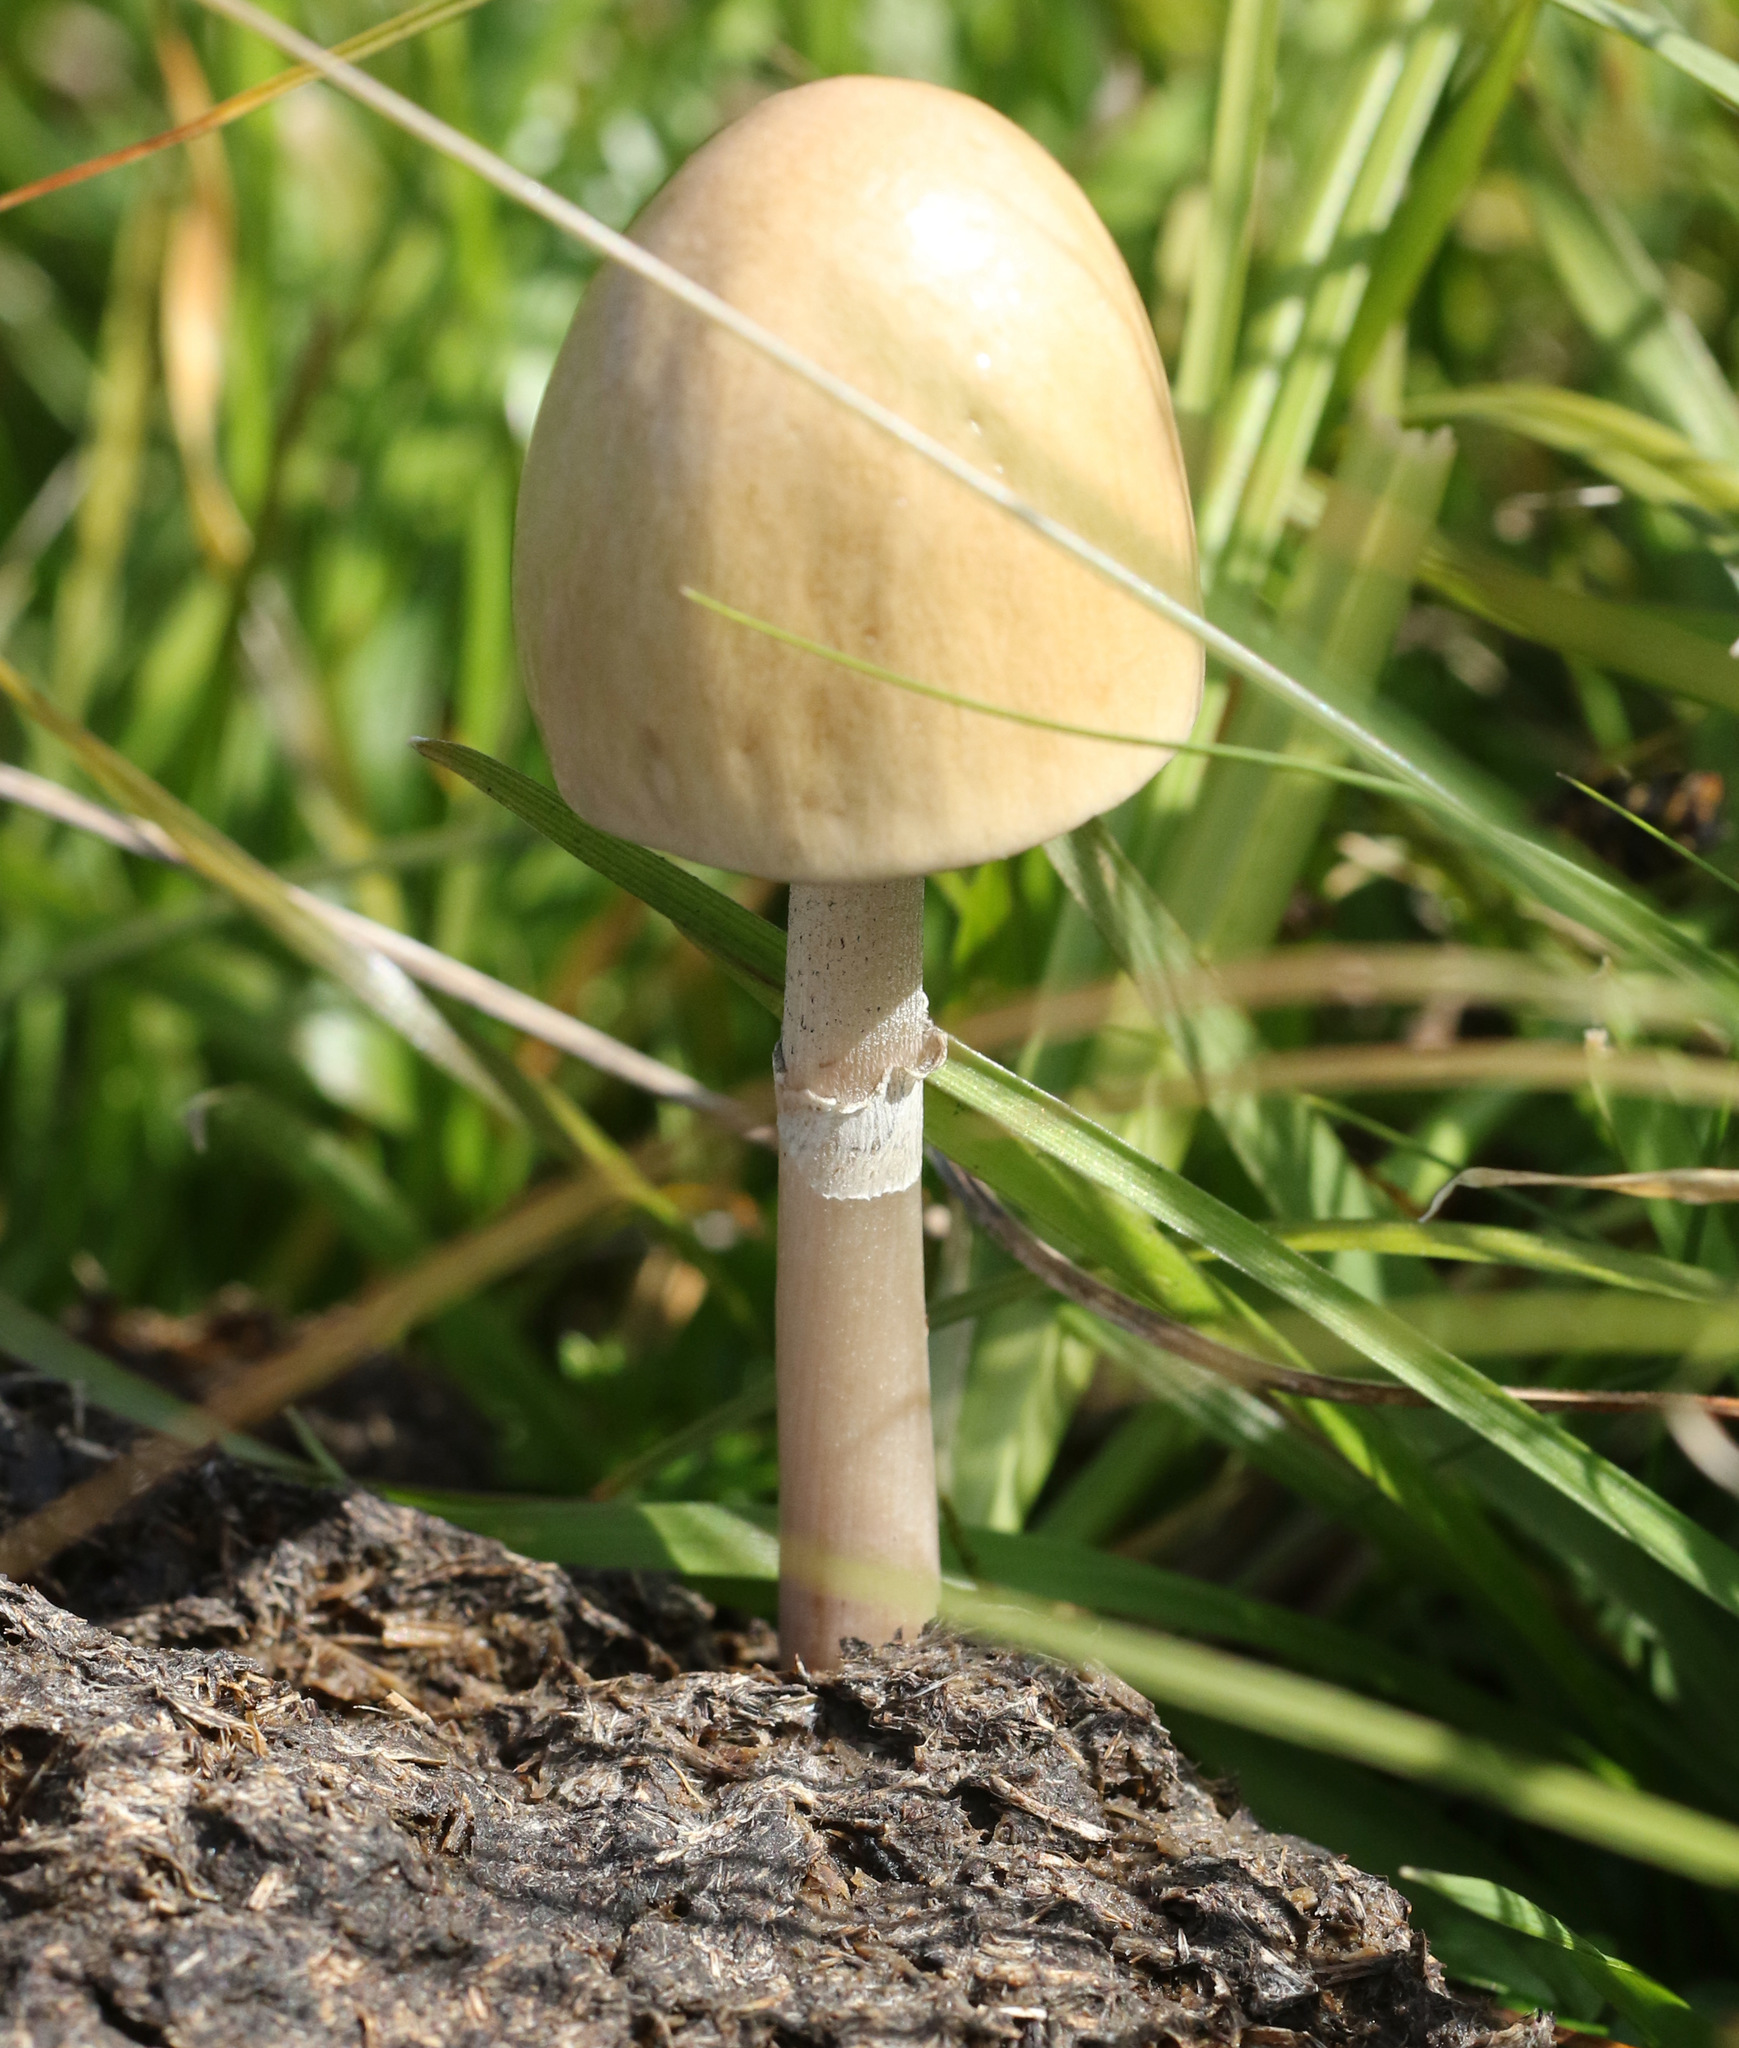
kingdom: Fungi
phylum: Basidiomycota
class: Agaricomycetes
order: Agaricales
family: Bolbitiaceae
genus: Panaeolus
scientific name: Panaeolus semiovatus
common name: Shiny mottlegill
